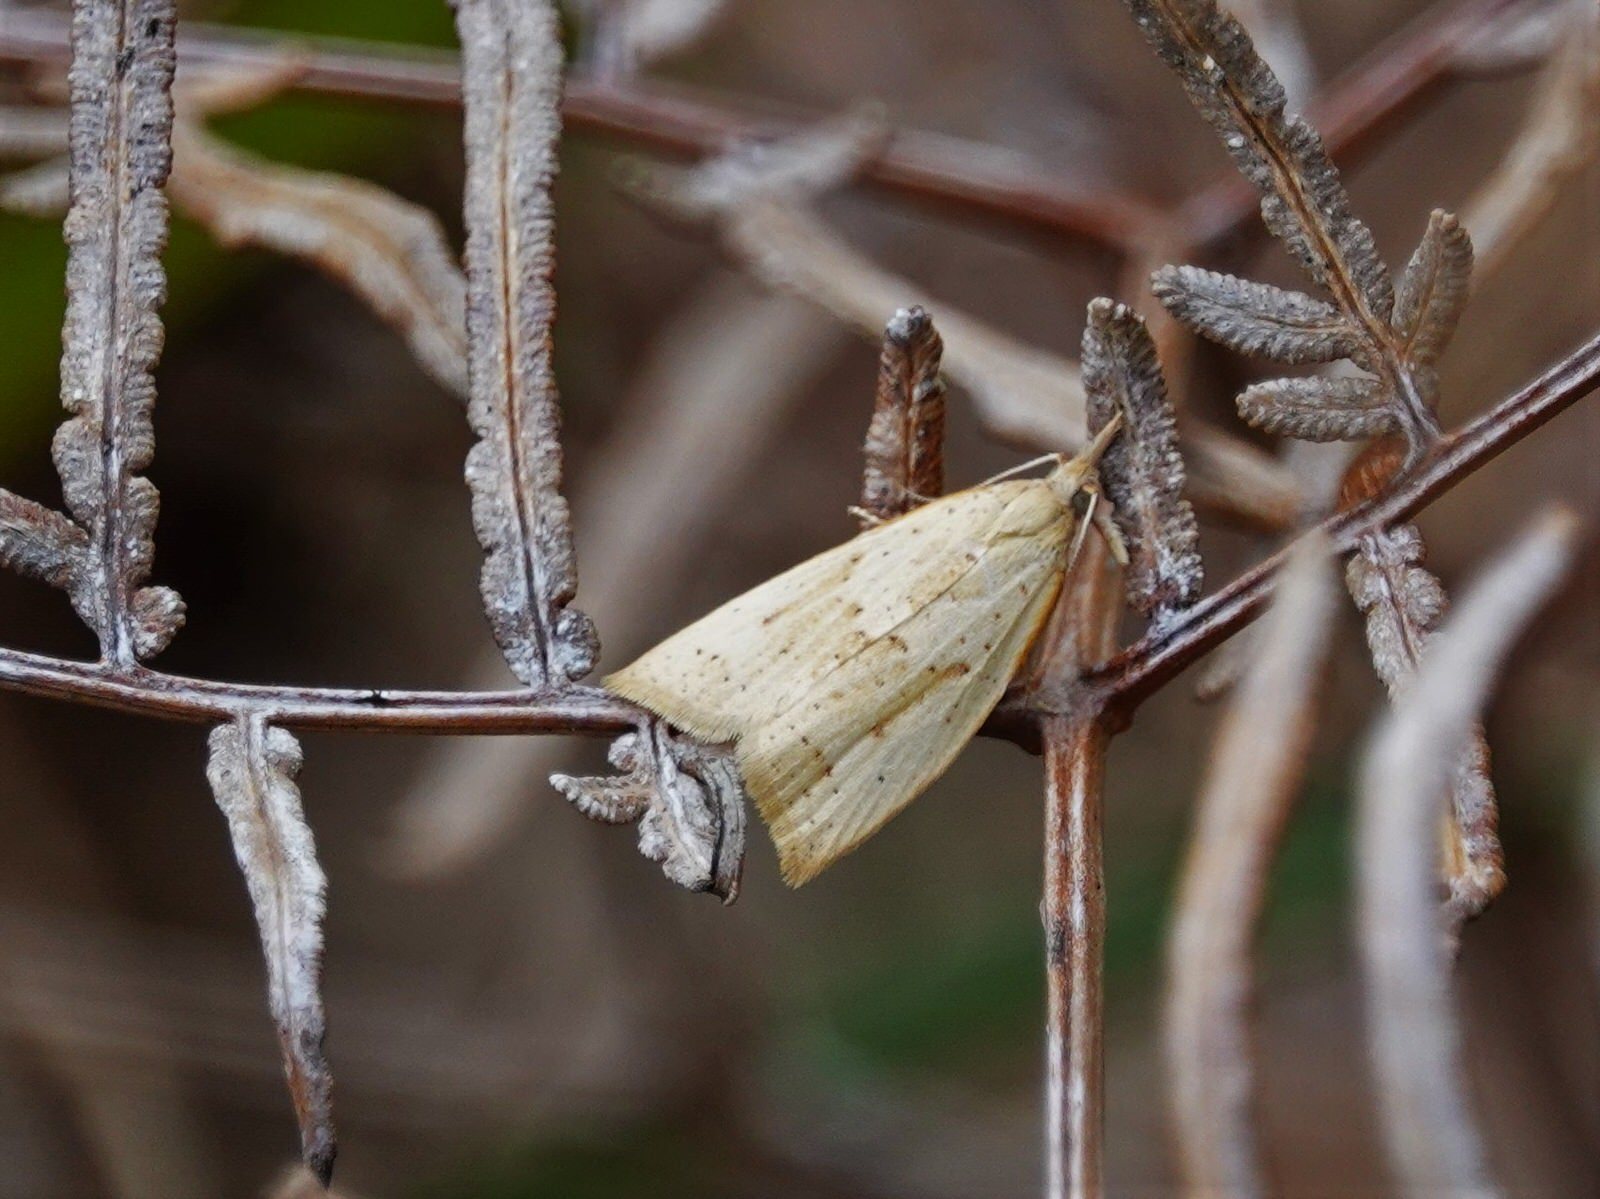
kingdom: Animalia
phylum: Arthropoda
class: Insecta
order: Lepidoptera
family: Tortricidae
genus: Apoctena
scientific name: Apoctena conditana
